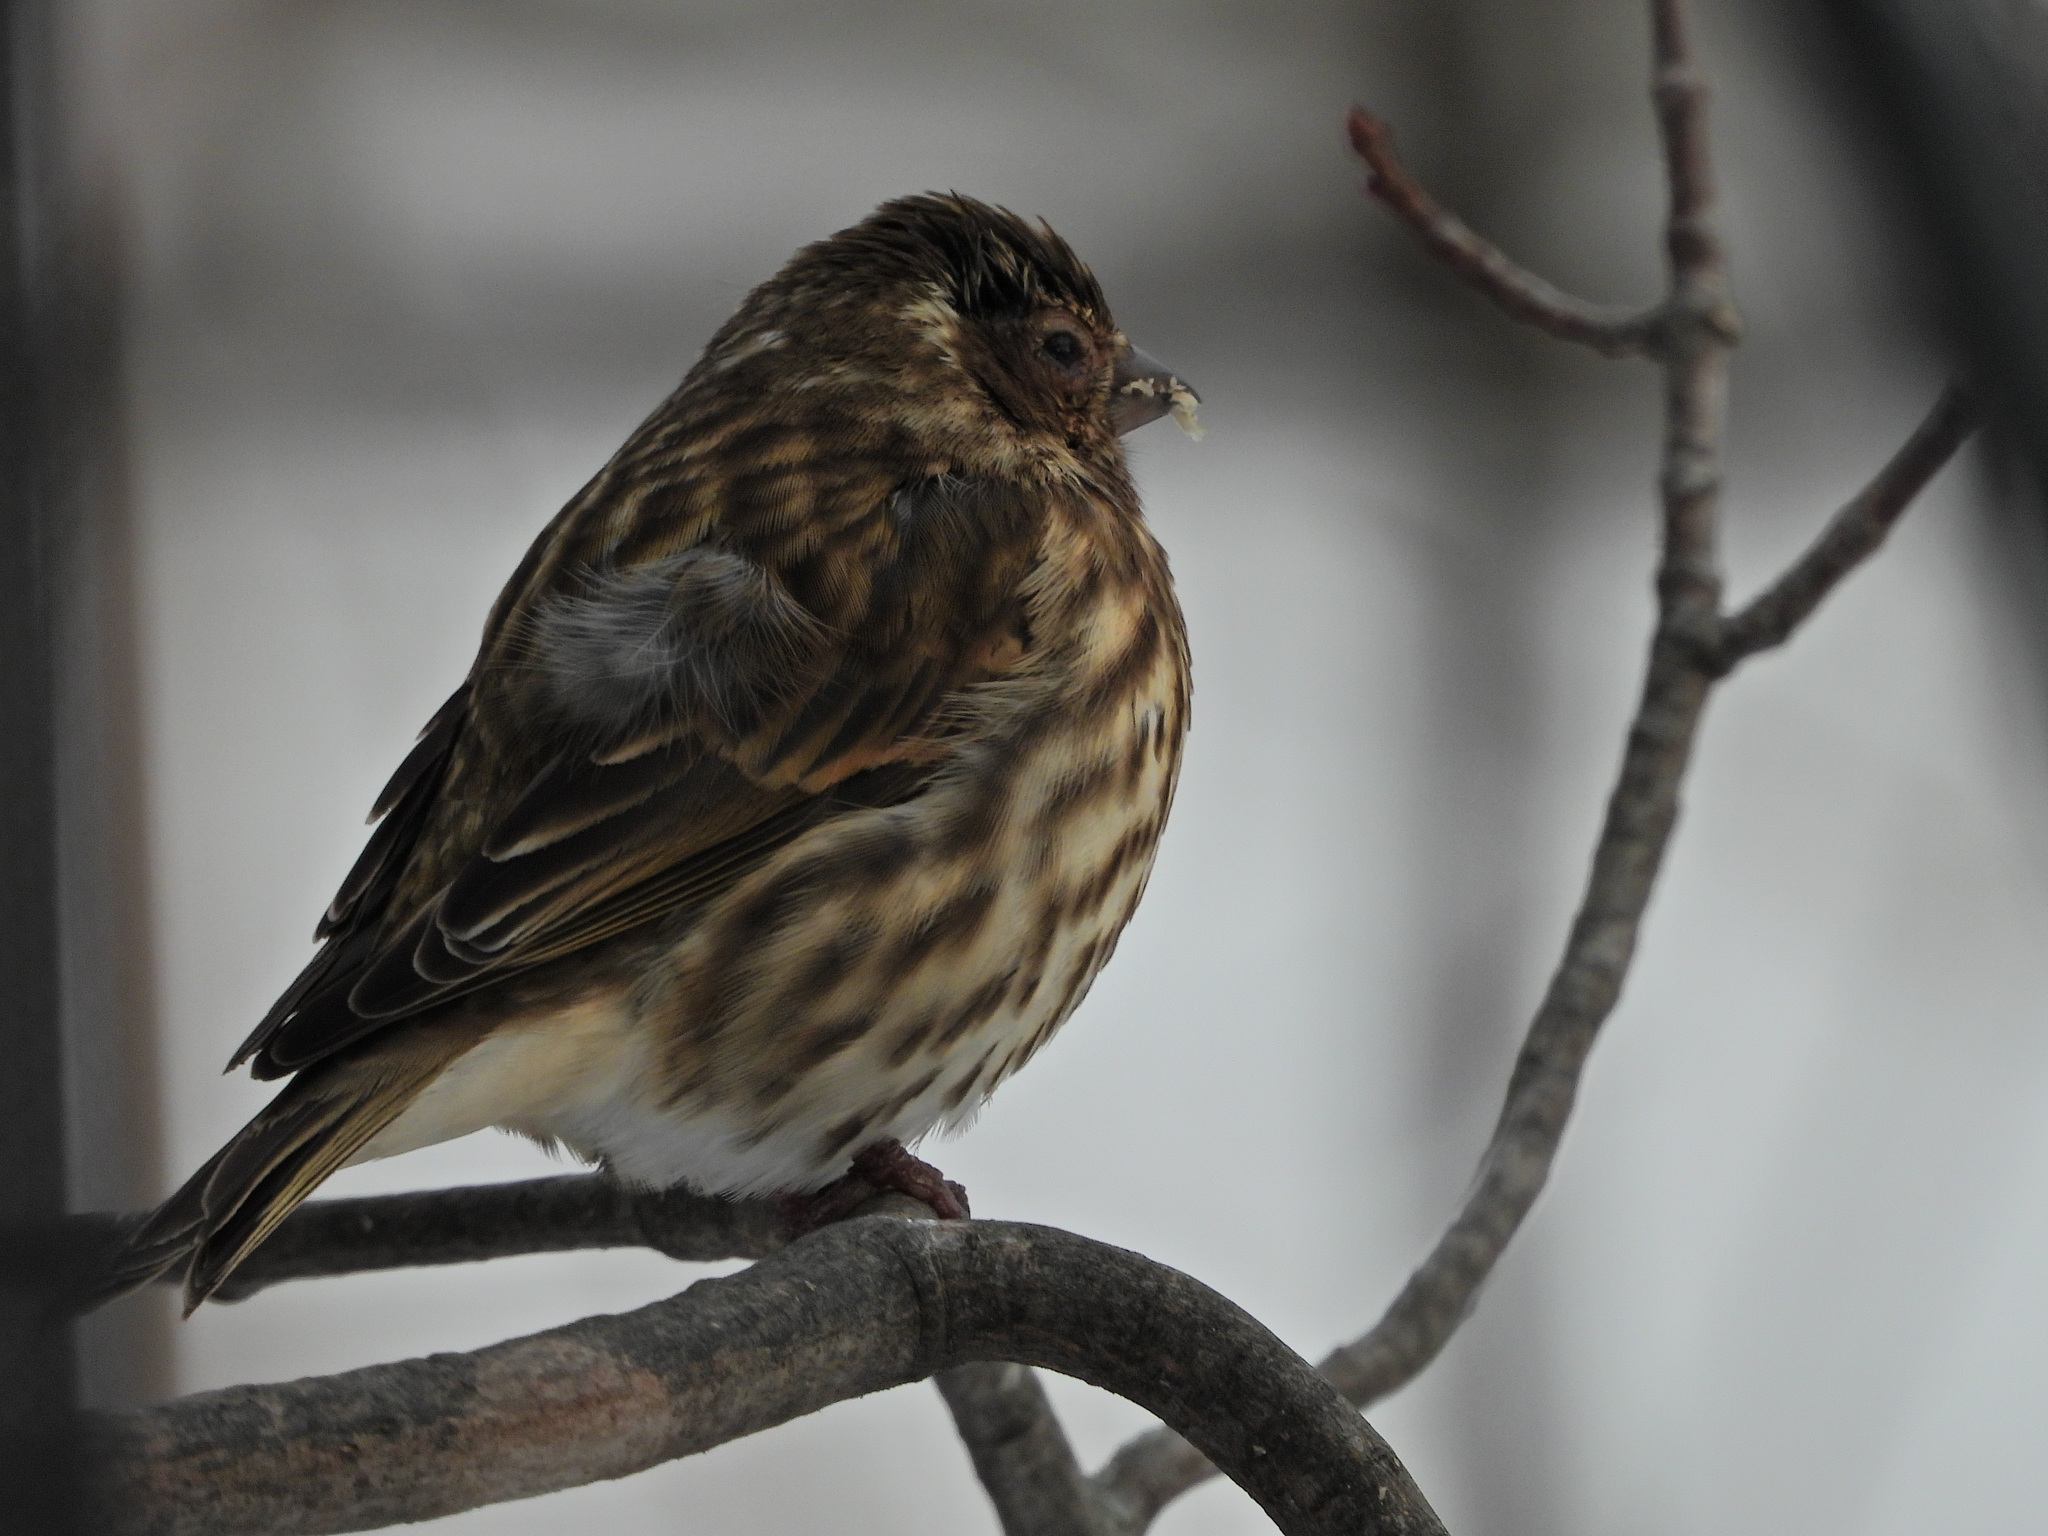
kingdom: Animalia
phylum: Chordata
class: Aves
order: Passeriformes
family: Fringillidae
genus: Haemorhous
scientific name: Haemorhous mexicanus
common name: House finch
